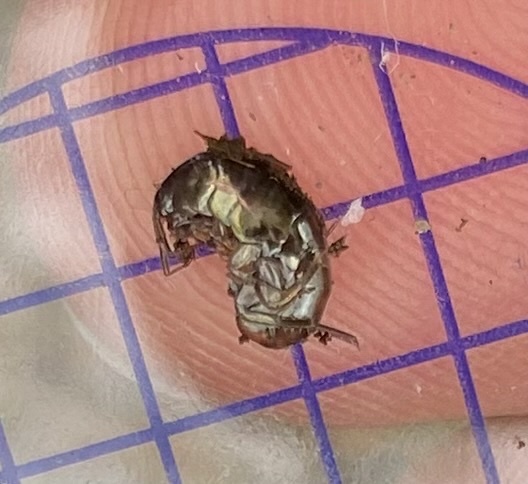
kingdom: Animalia
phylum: Arthropoda
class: Malacostraca
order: Amphipoda
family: Arcitalitridae
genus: Arcitalitrus
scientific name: Arcitalitrus dorrieni
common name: Landhopper
